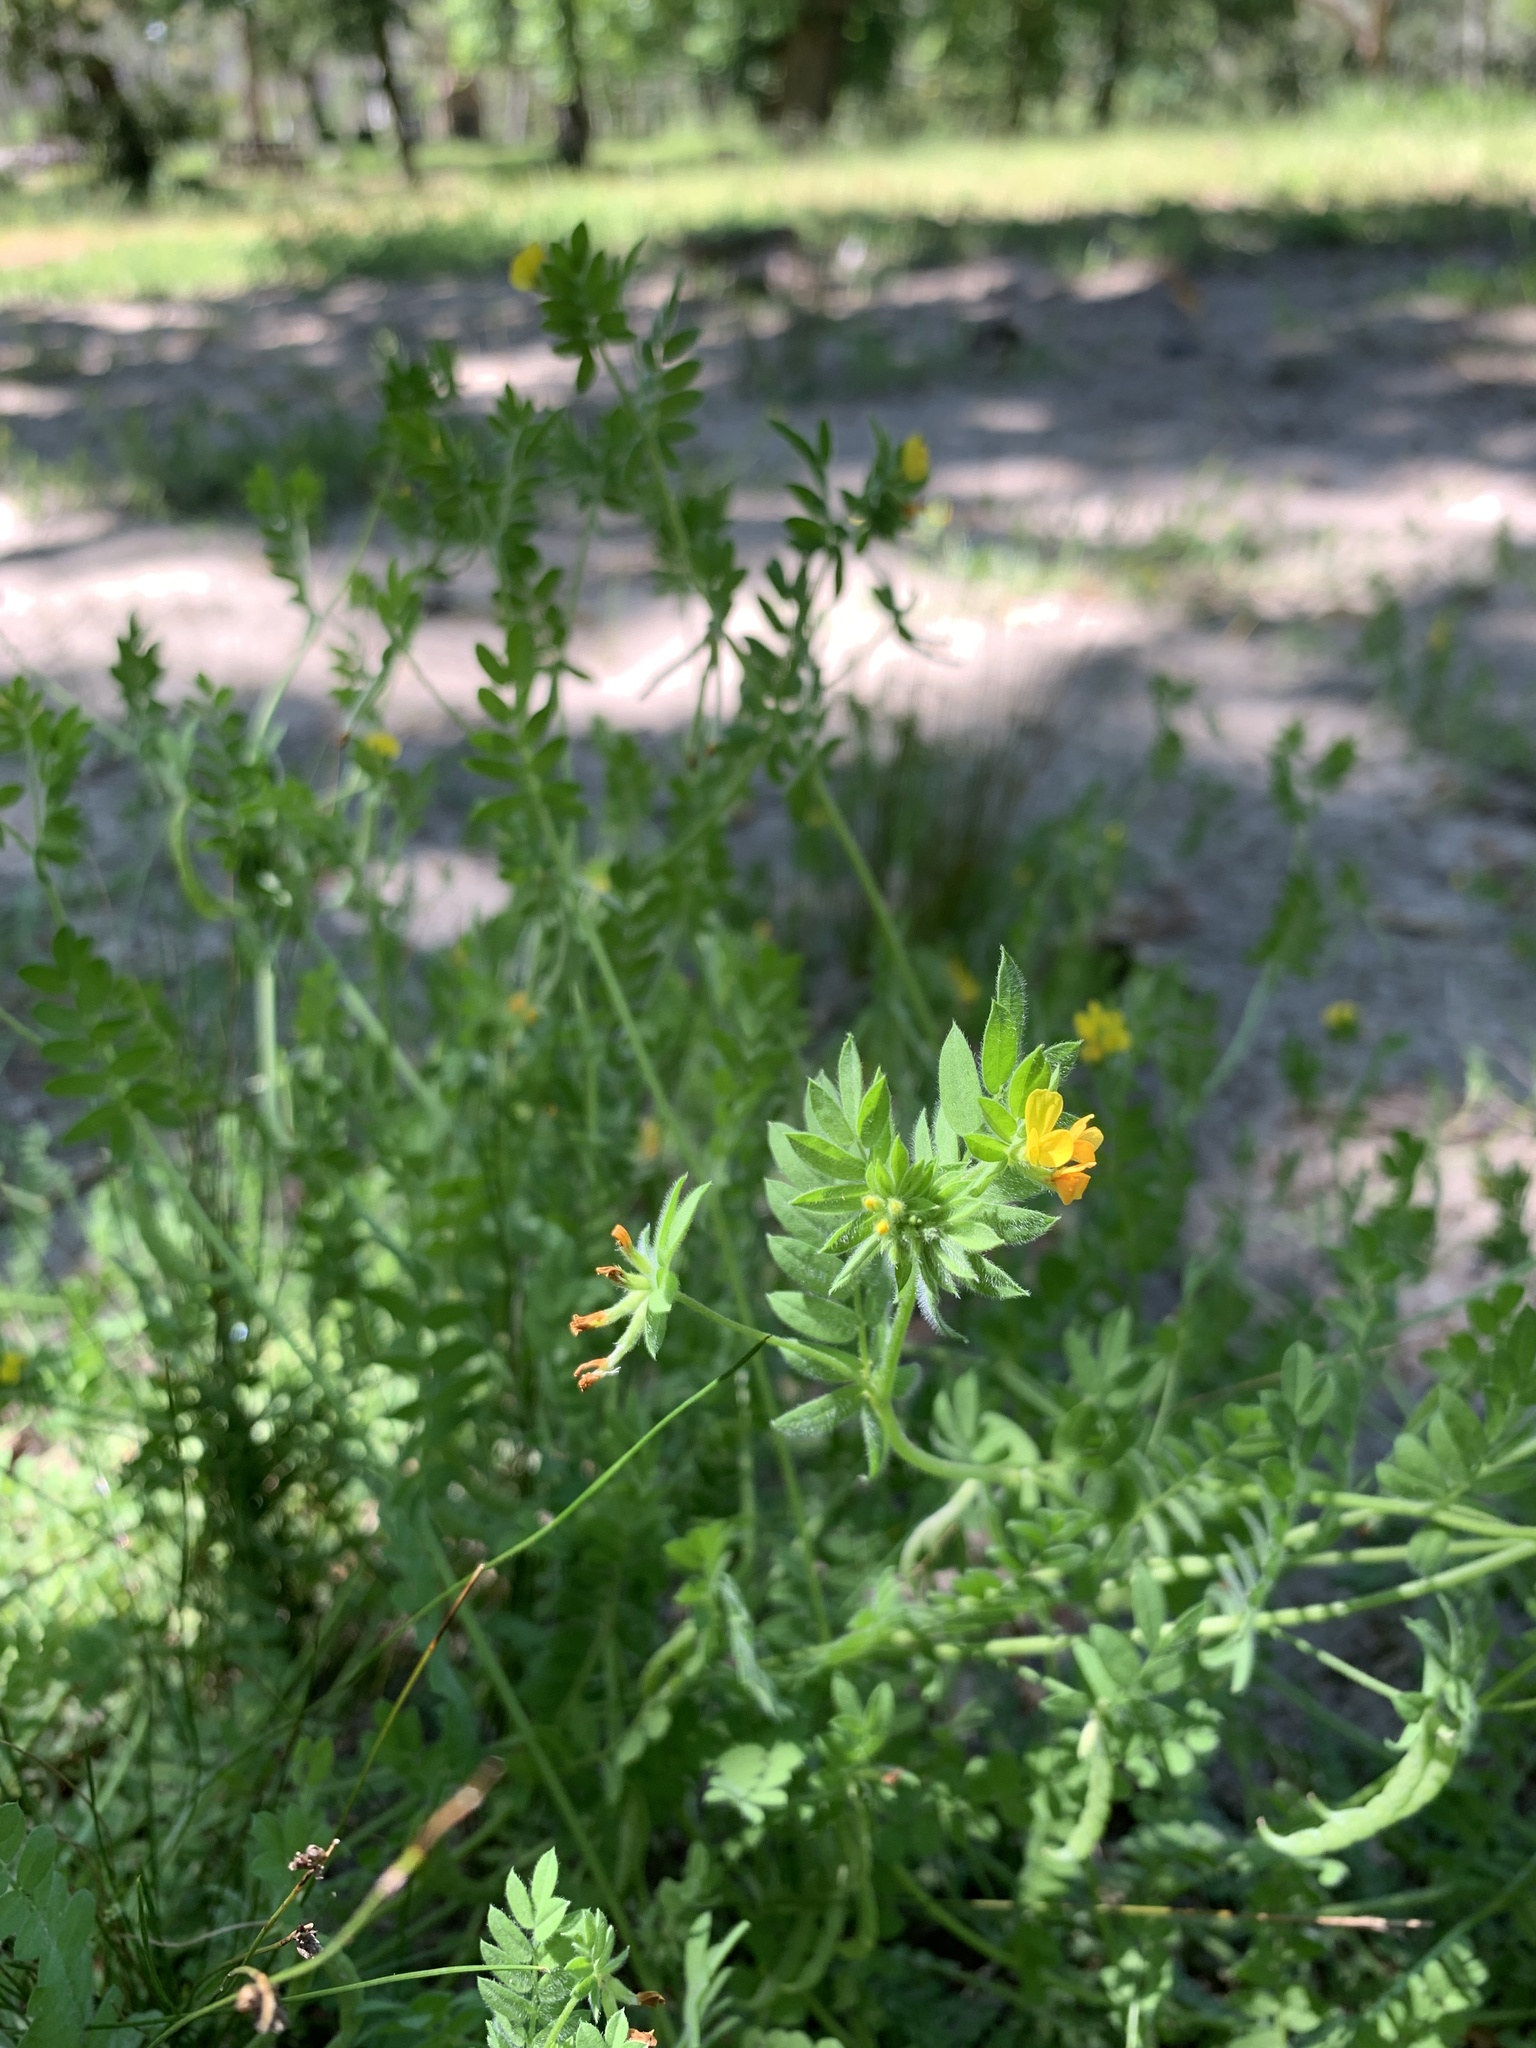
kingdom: Plantae
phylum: Tracheophyta
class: Magnoliopsida
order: Fabales
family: Fabaceae
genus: Ornithopus
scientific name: Ornithopus compressus
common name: Yellow serradella
